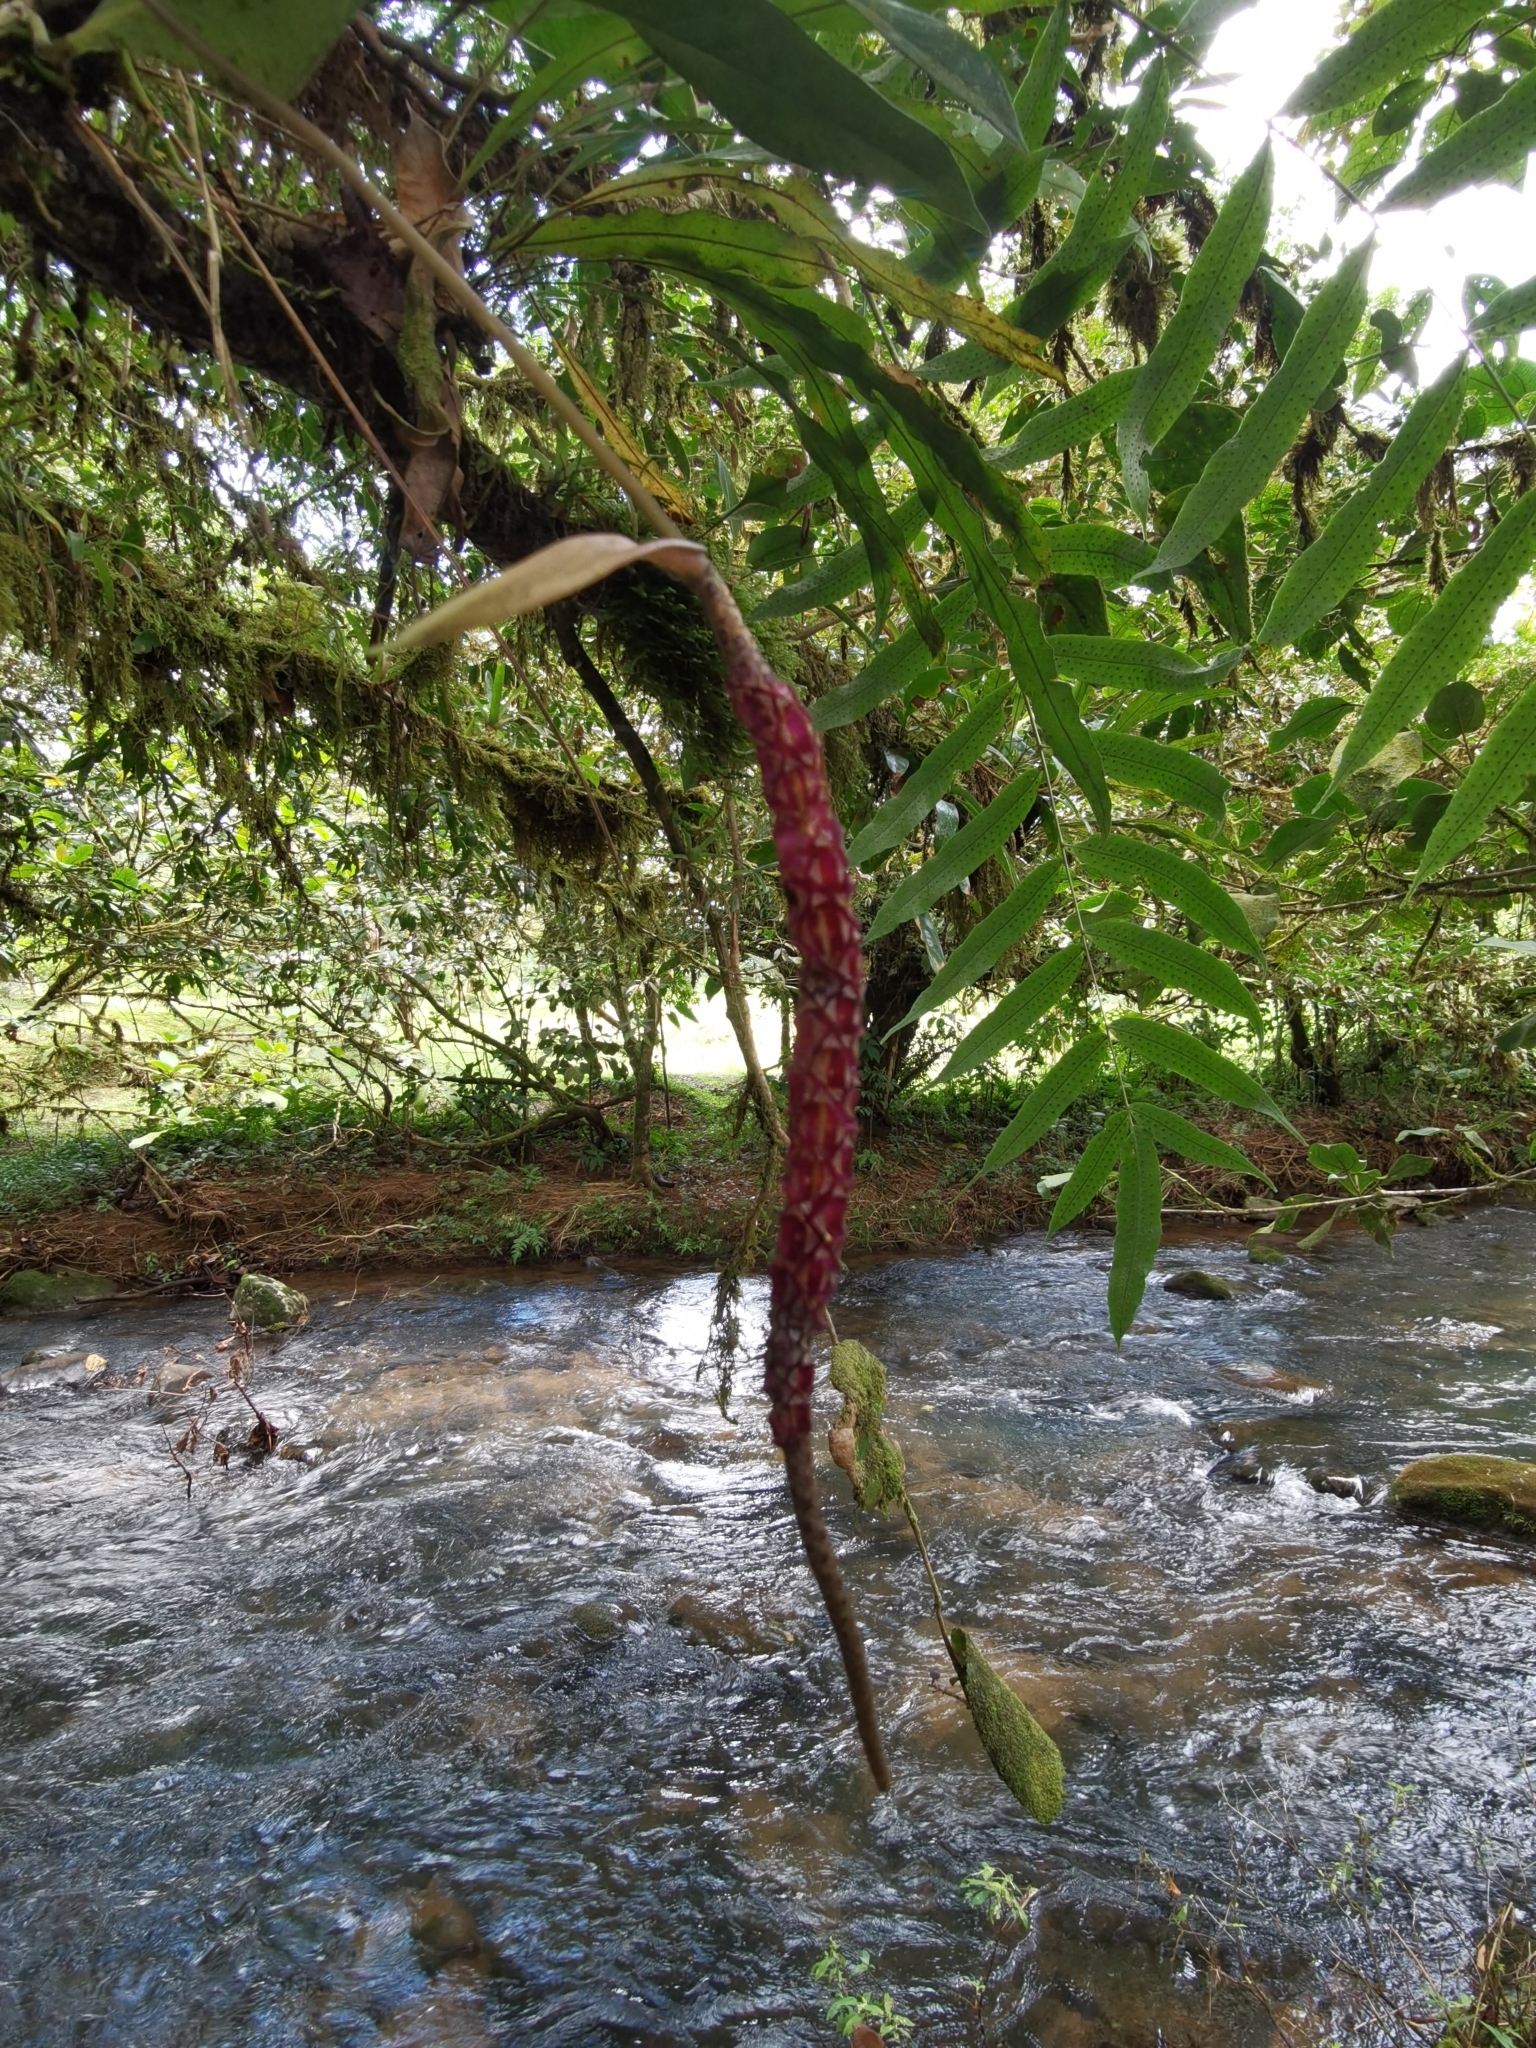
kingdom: Plantae
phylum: Tracheophyta
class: Liliopsida
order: Alismatales
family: Araceae
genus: Anthurium
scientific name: Anthurium gracile
